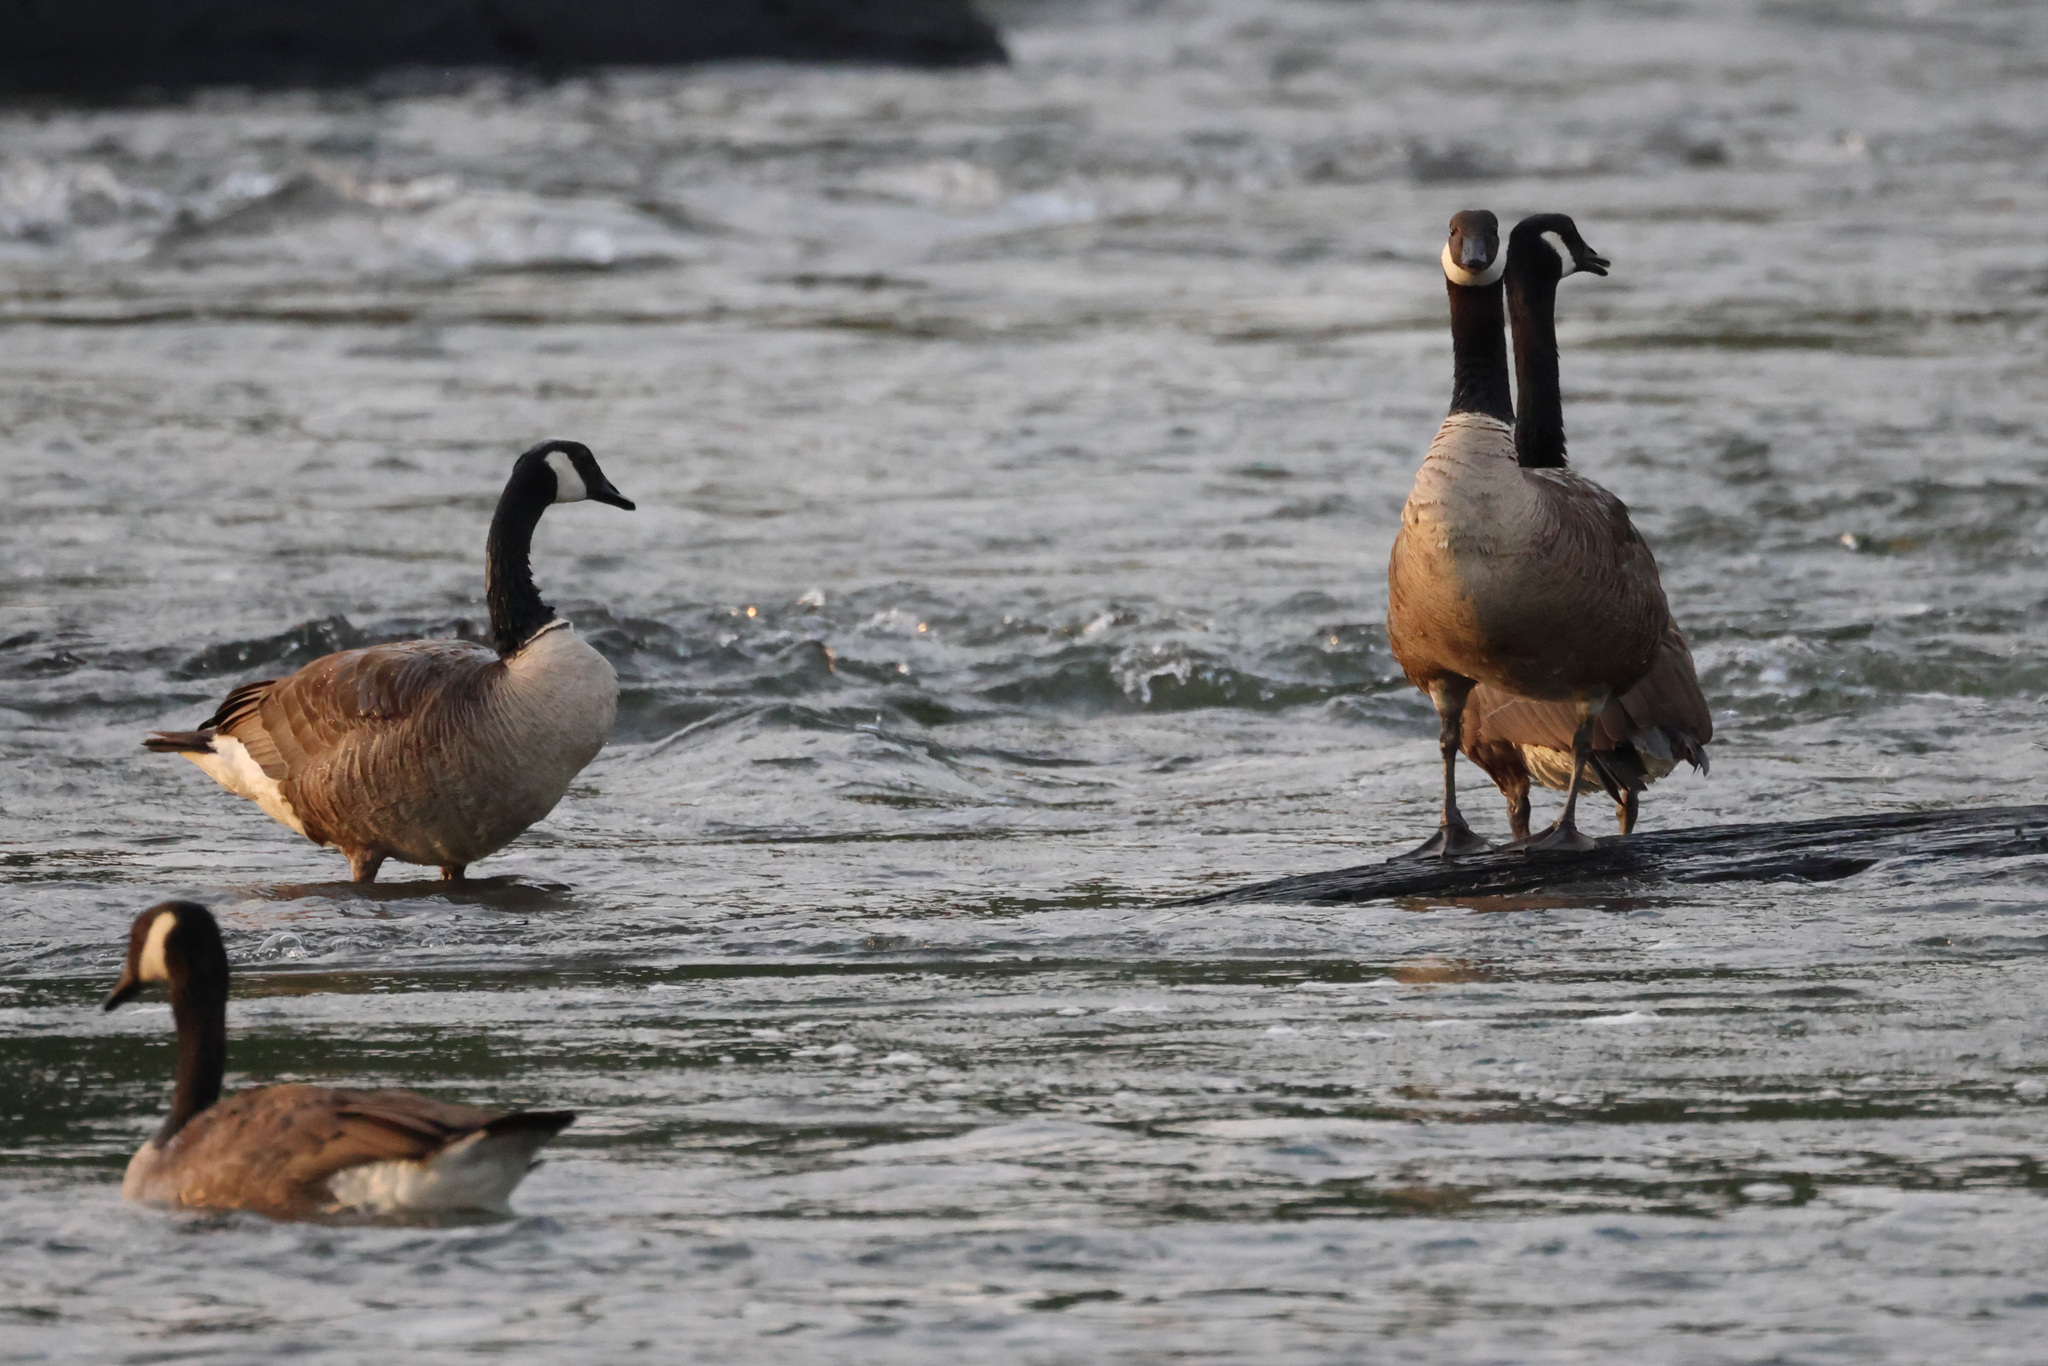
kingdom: Animalia
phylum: Chordata
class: Aves
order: Anseriformes
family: Anatidae
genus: Branta
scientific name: Branta canadensis
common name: Canada goose
